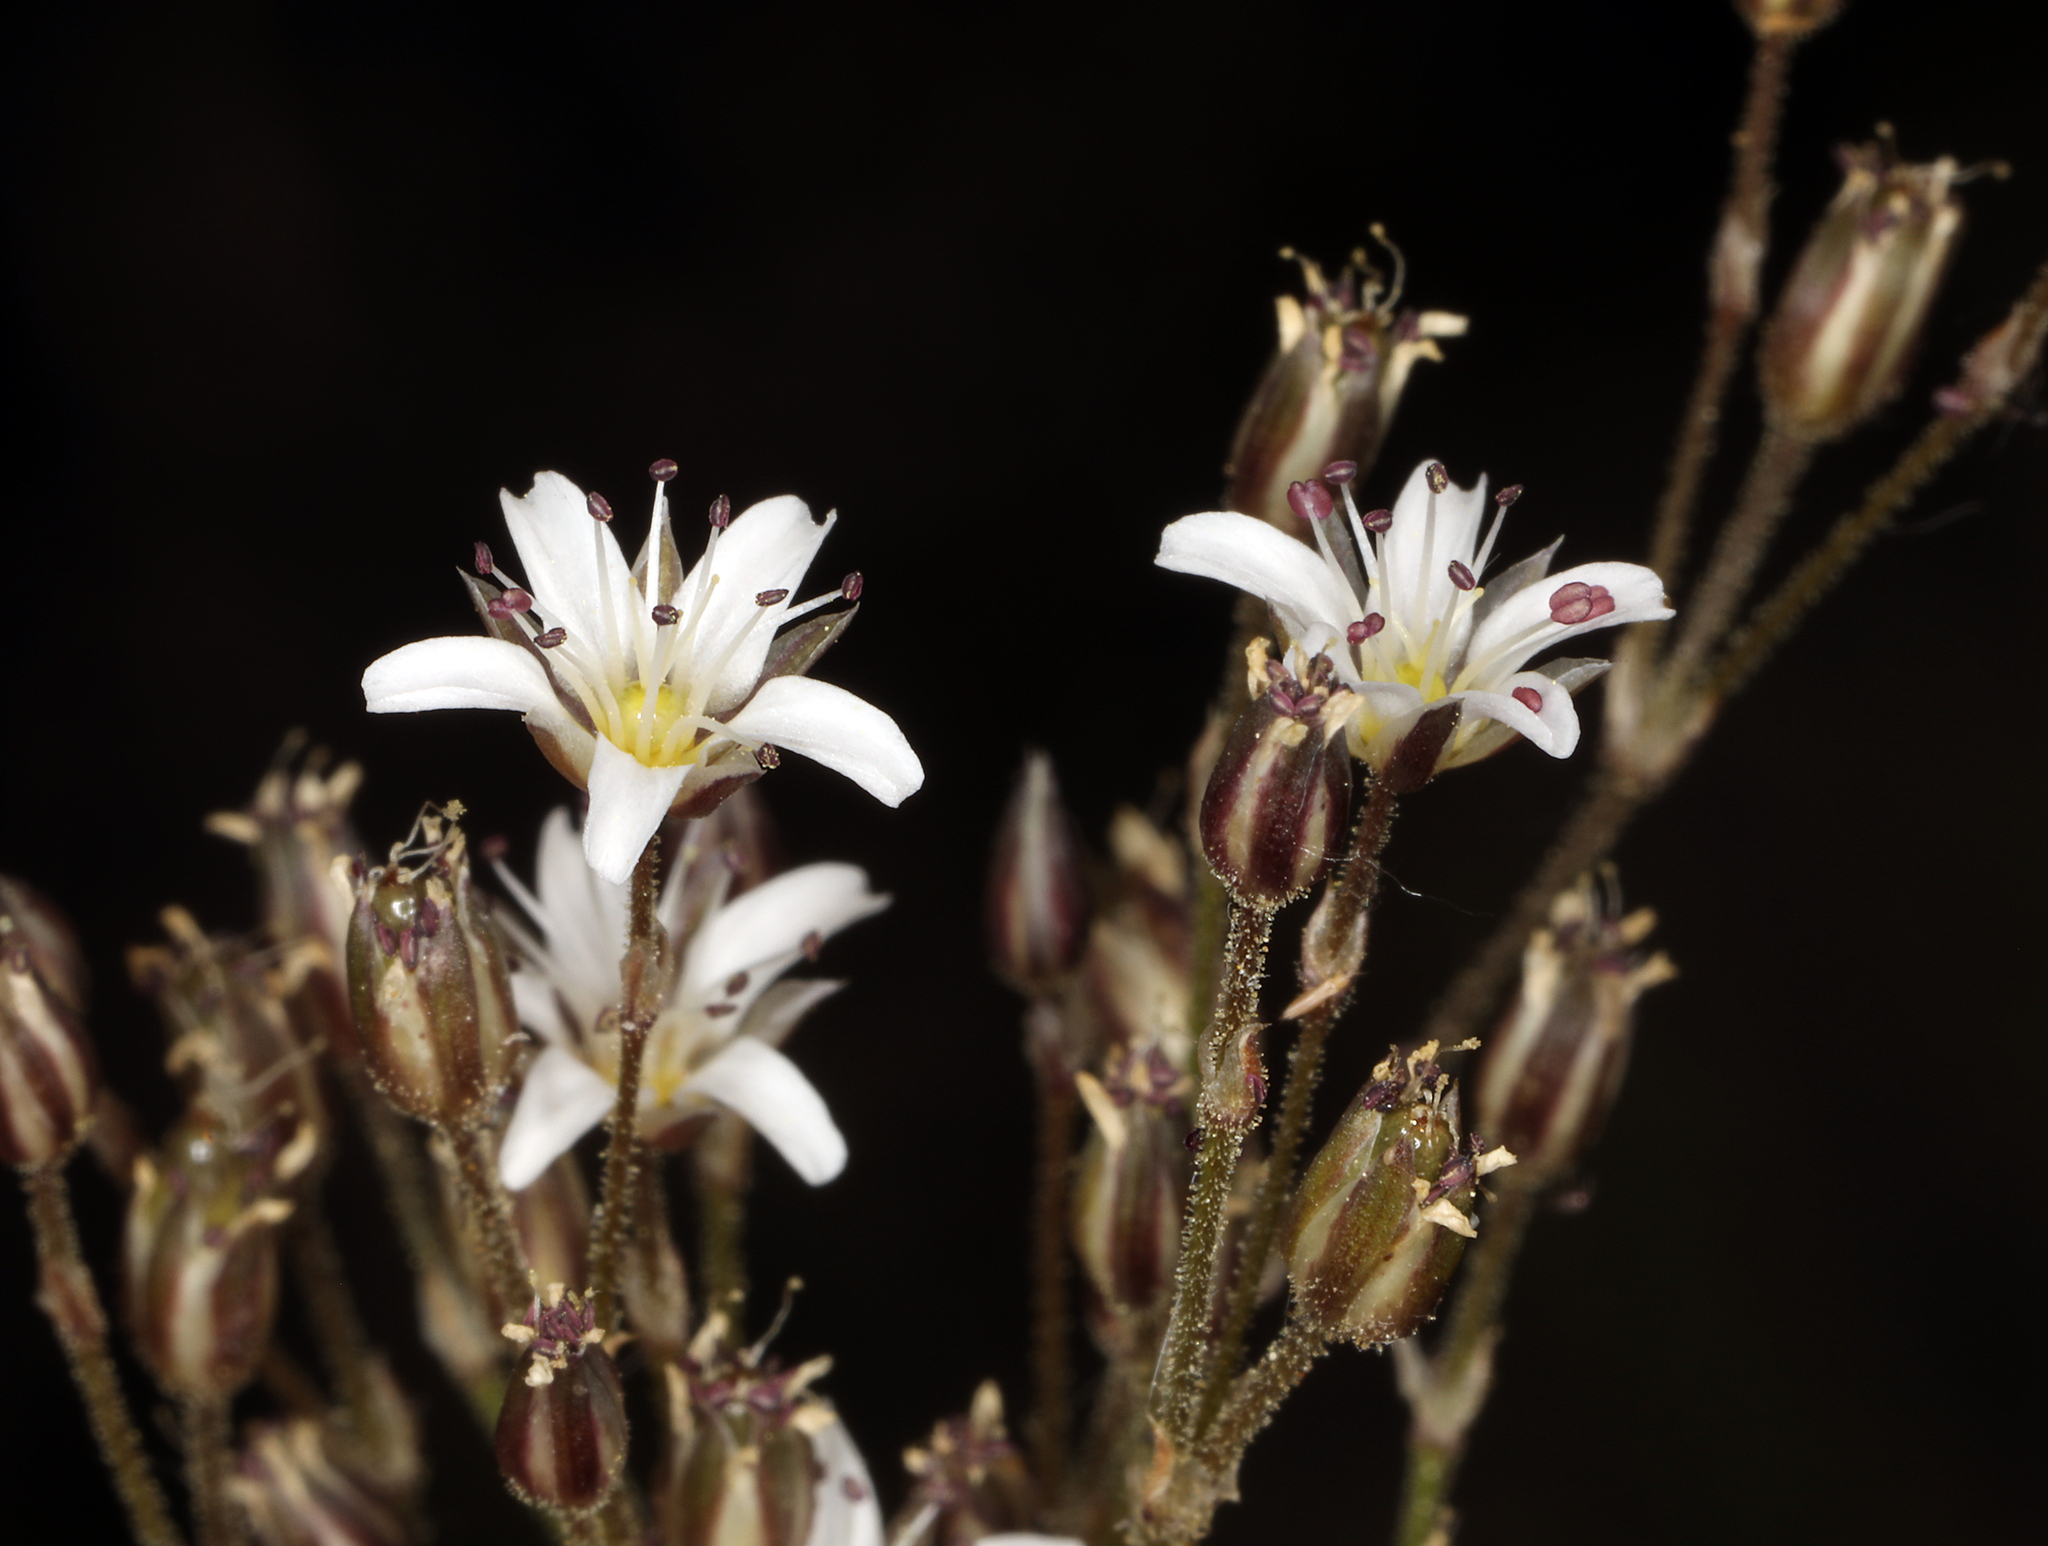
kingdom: Plantae
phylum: Tracheophyta
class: Magnoliopsida
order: Caryophyllales
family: Caryophyllaceae
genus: Eremogone
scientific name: Eremogone kingii
